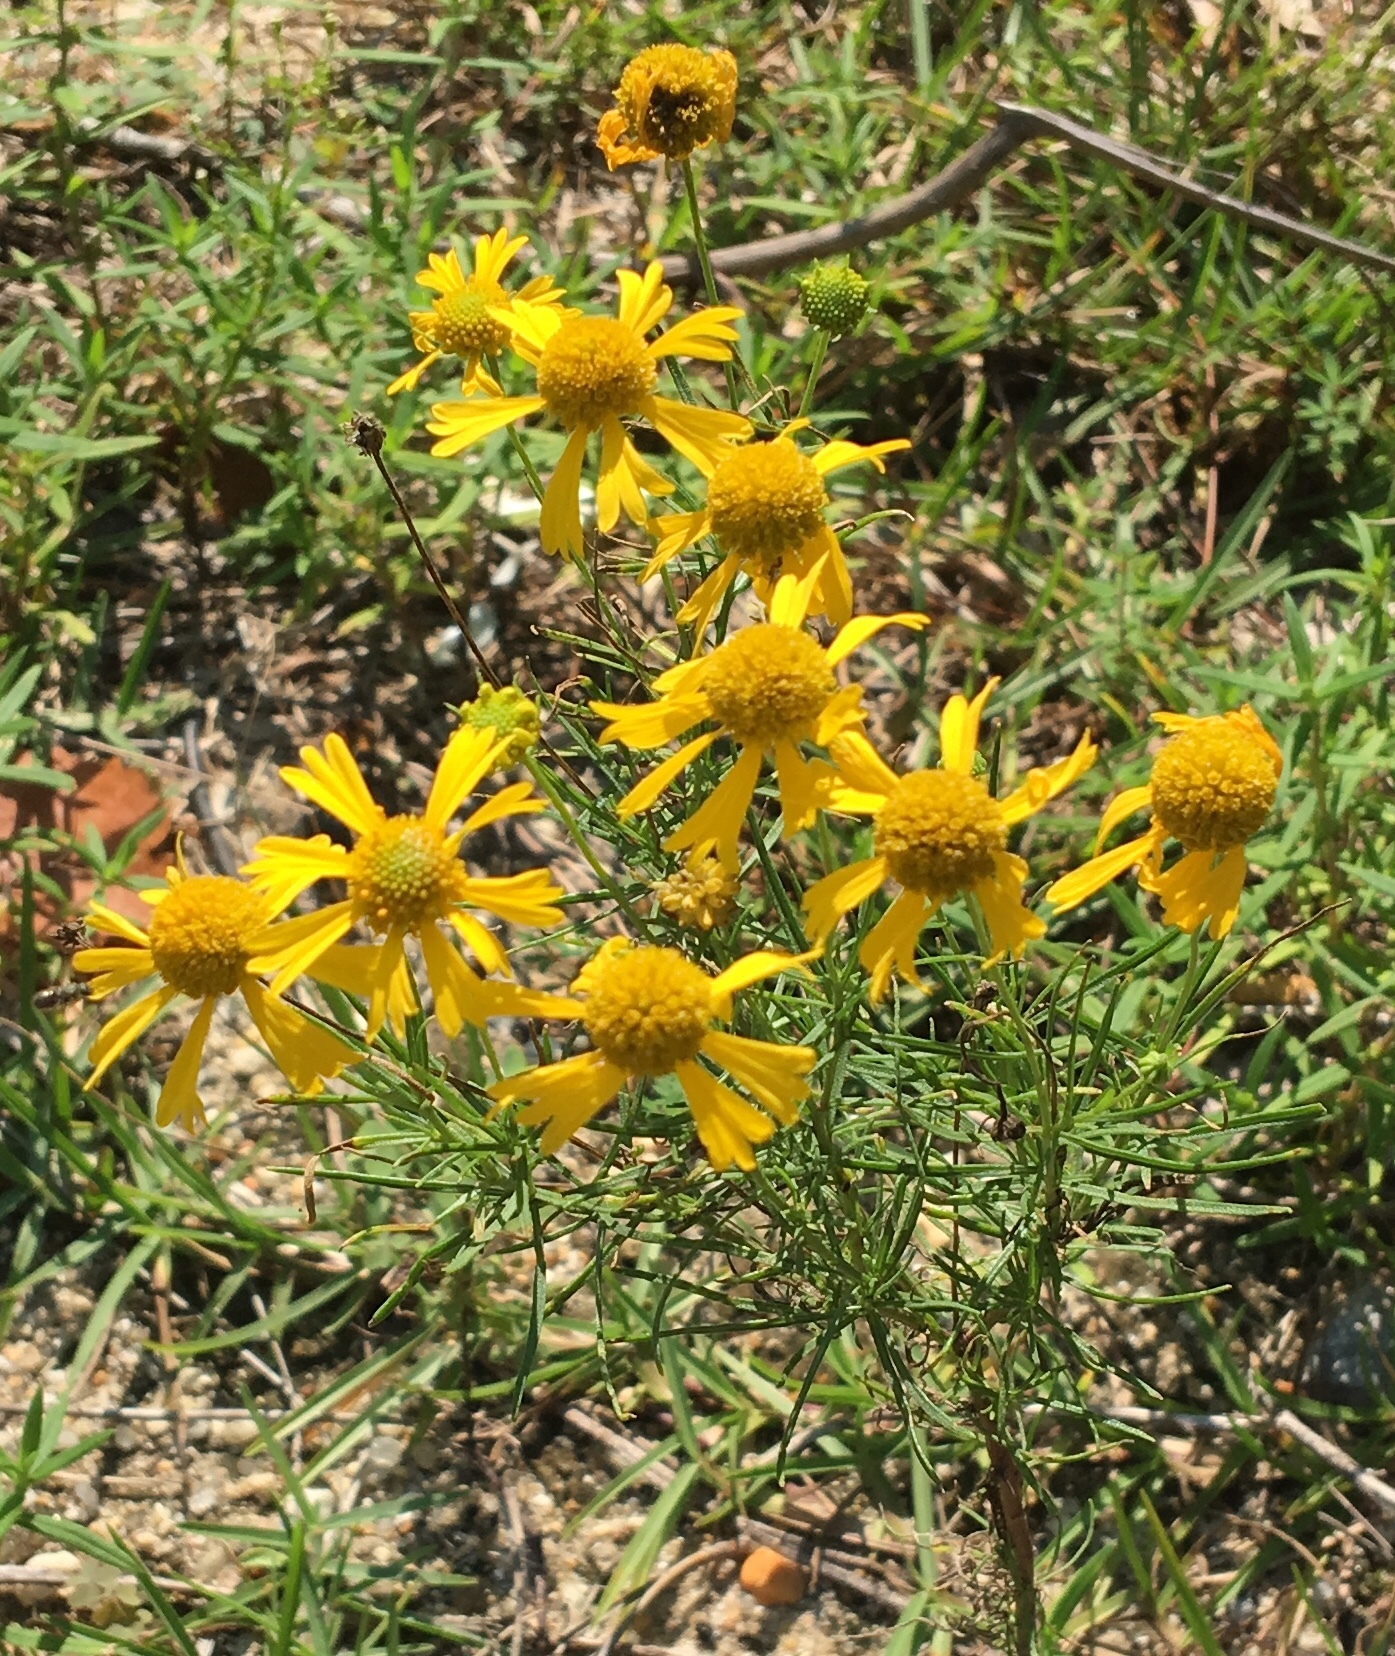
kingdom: Plantae
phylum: Tracheophyta
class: Magnoliopsida
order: Asterales
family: Asteraceae
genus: Helenium
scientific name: Helenium amarum
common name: Bitter sneezeweed
